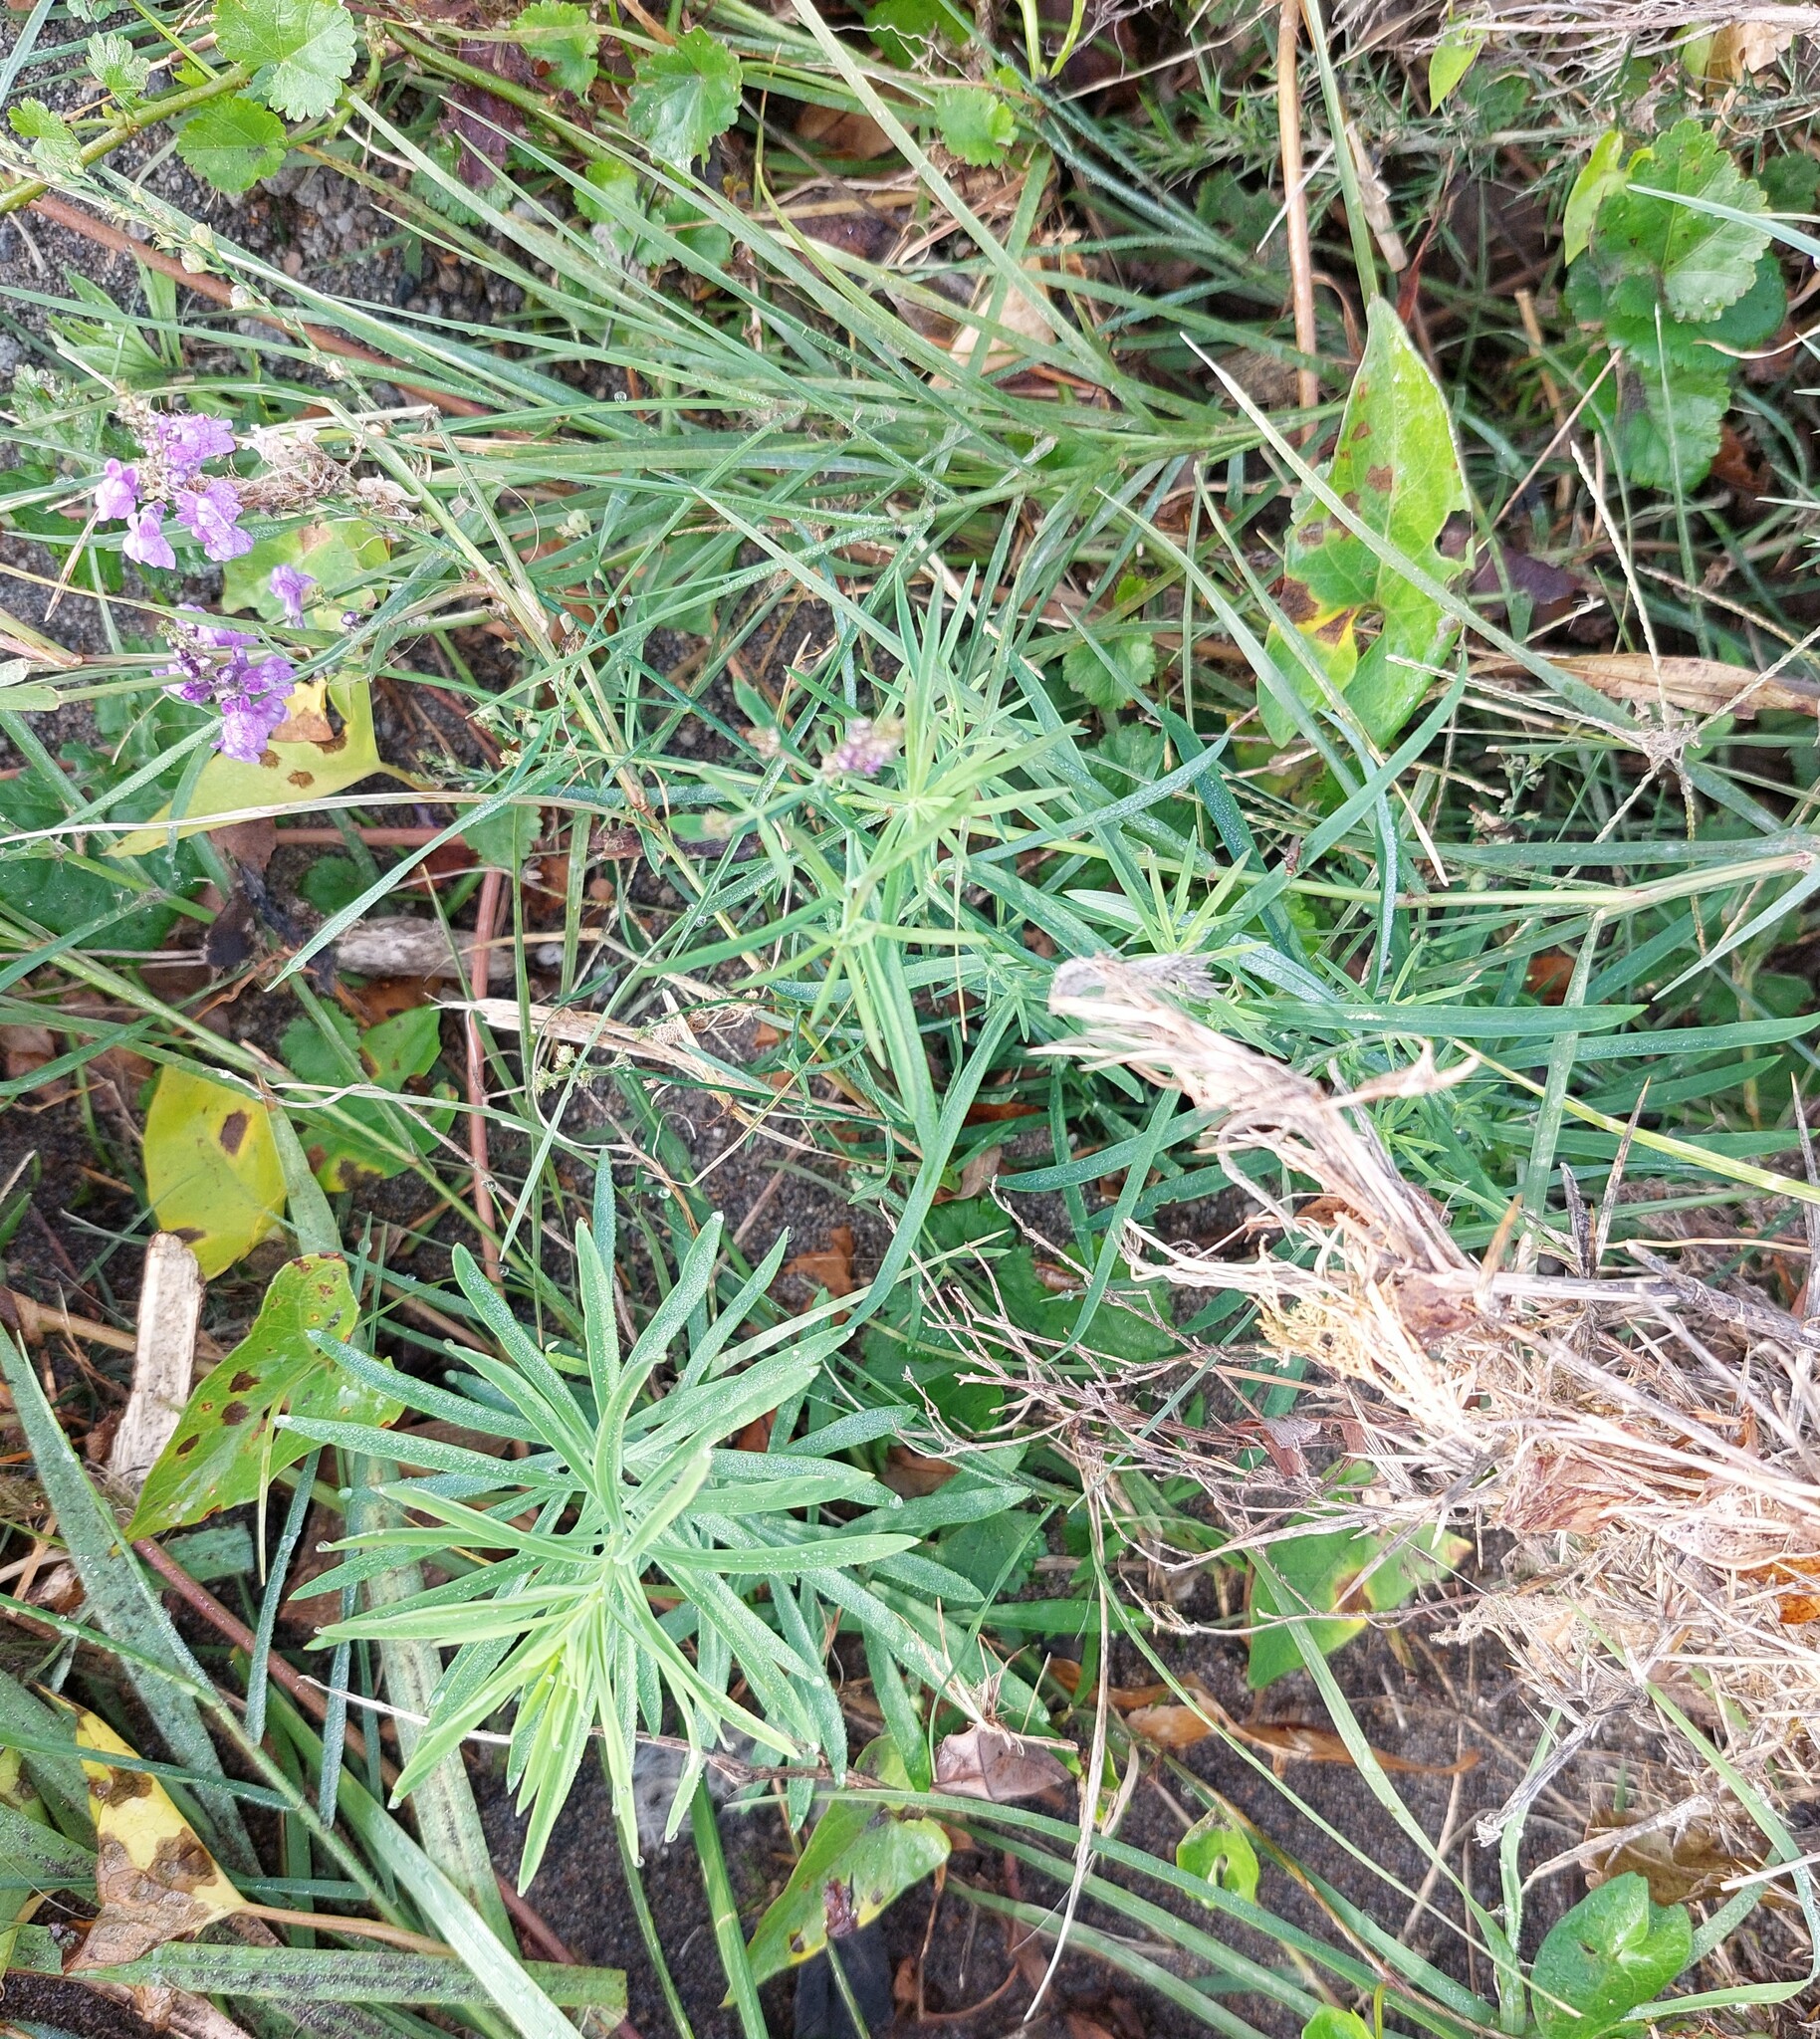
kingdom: Plantae
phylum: Tracheophyta
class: Magnoliopsida
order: Lamiales
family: Plantaginaceae
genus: Linaria
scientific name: Linaria purpurea
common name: Purple toadflax
